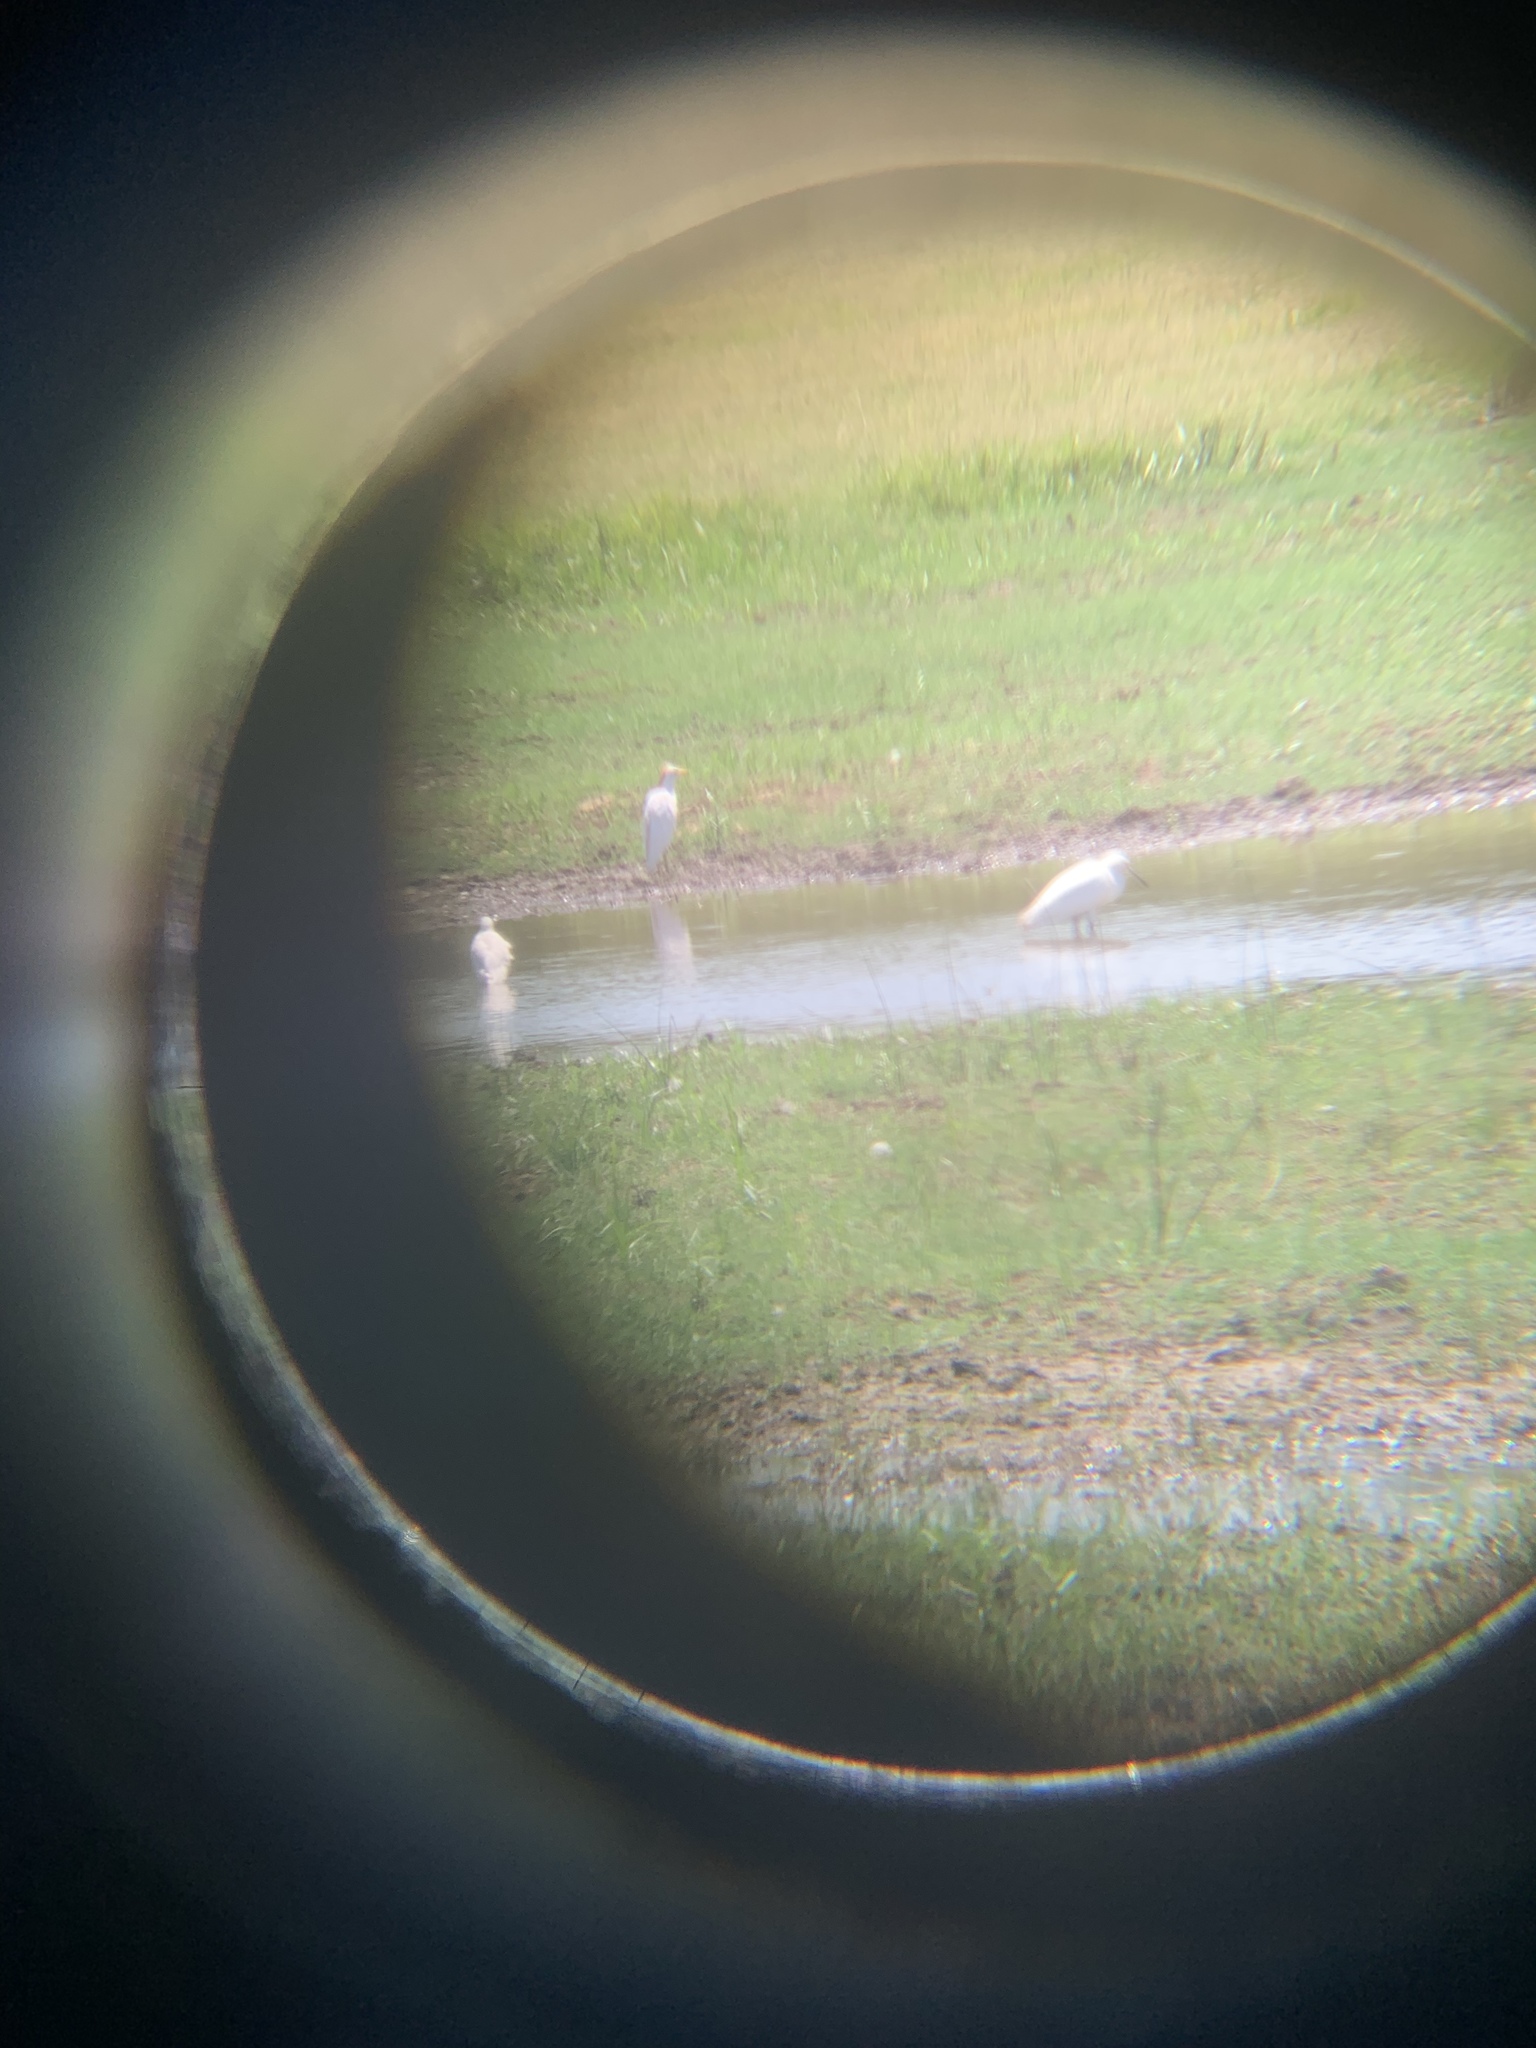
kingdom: Animalia
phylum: Chordata
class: Aves
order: Pelecaniformes
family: Ardeidae
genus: Bubulcus
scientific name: Bubulcus ibis
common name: Cattle egret
